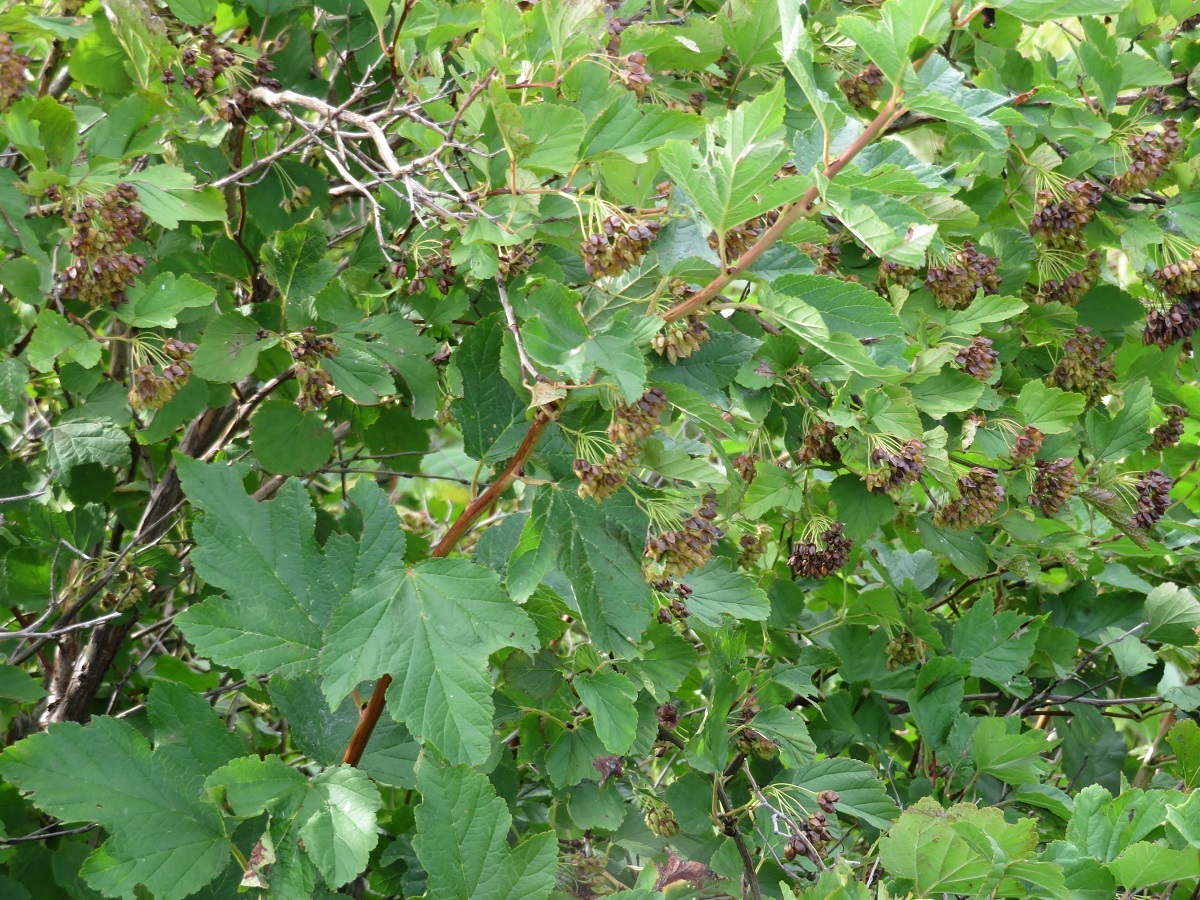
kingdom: Plantae
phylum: Tracheophyta
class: Magnoliopsida
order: Rosales
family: Rosaceae
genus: Physocarpus
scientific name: Physocarpus opulifolius
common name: Ninebark
